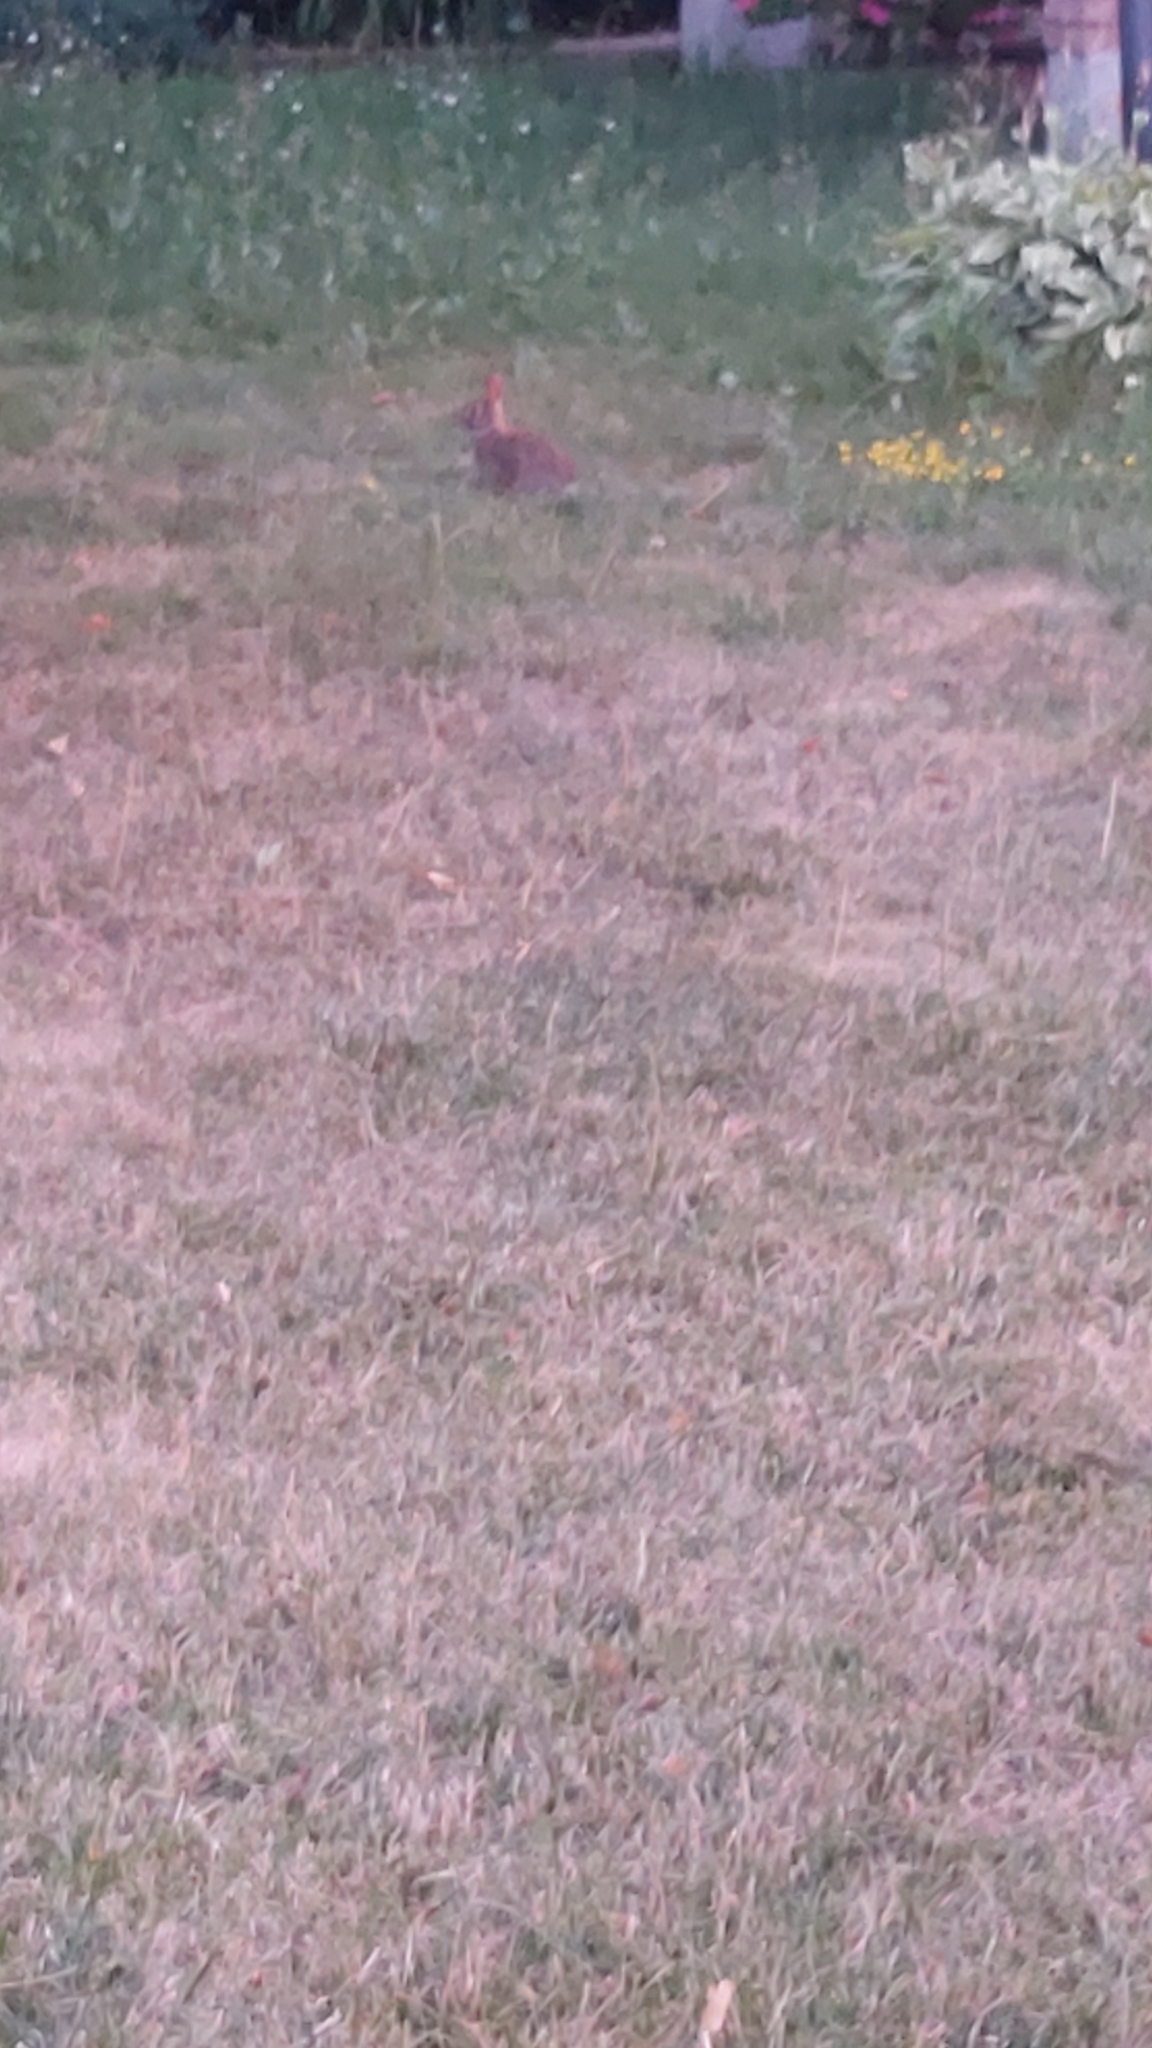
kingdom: Animalia
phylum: Chordata
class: Mammalia
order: Lagomorpha
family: Leporidae
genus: Sylvilagus
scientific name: Sylvilagus floridanus
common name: Eastern cottontail
